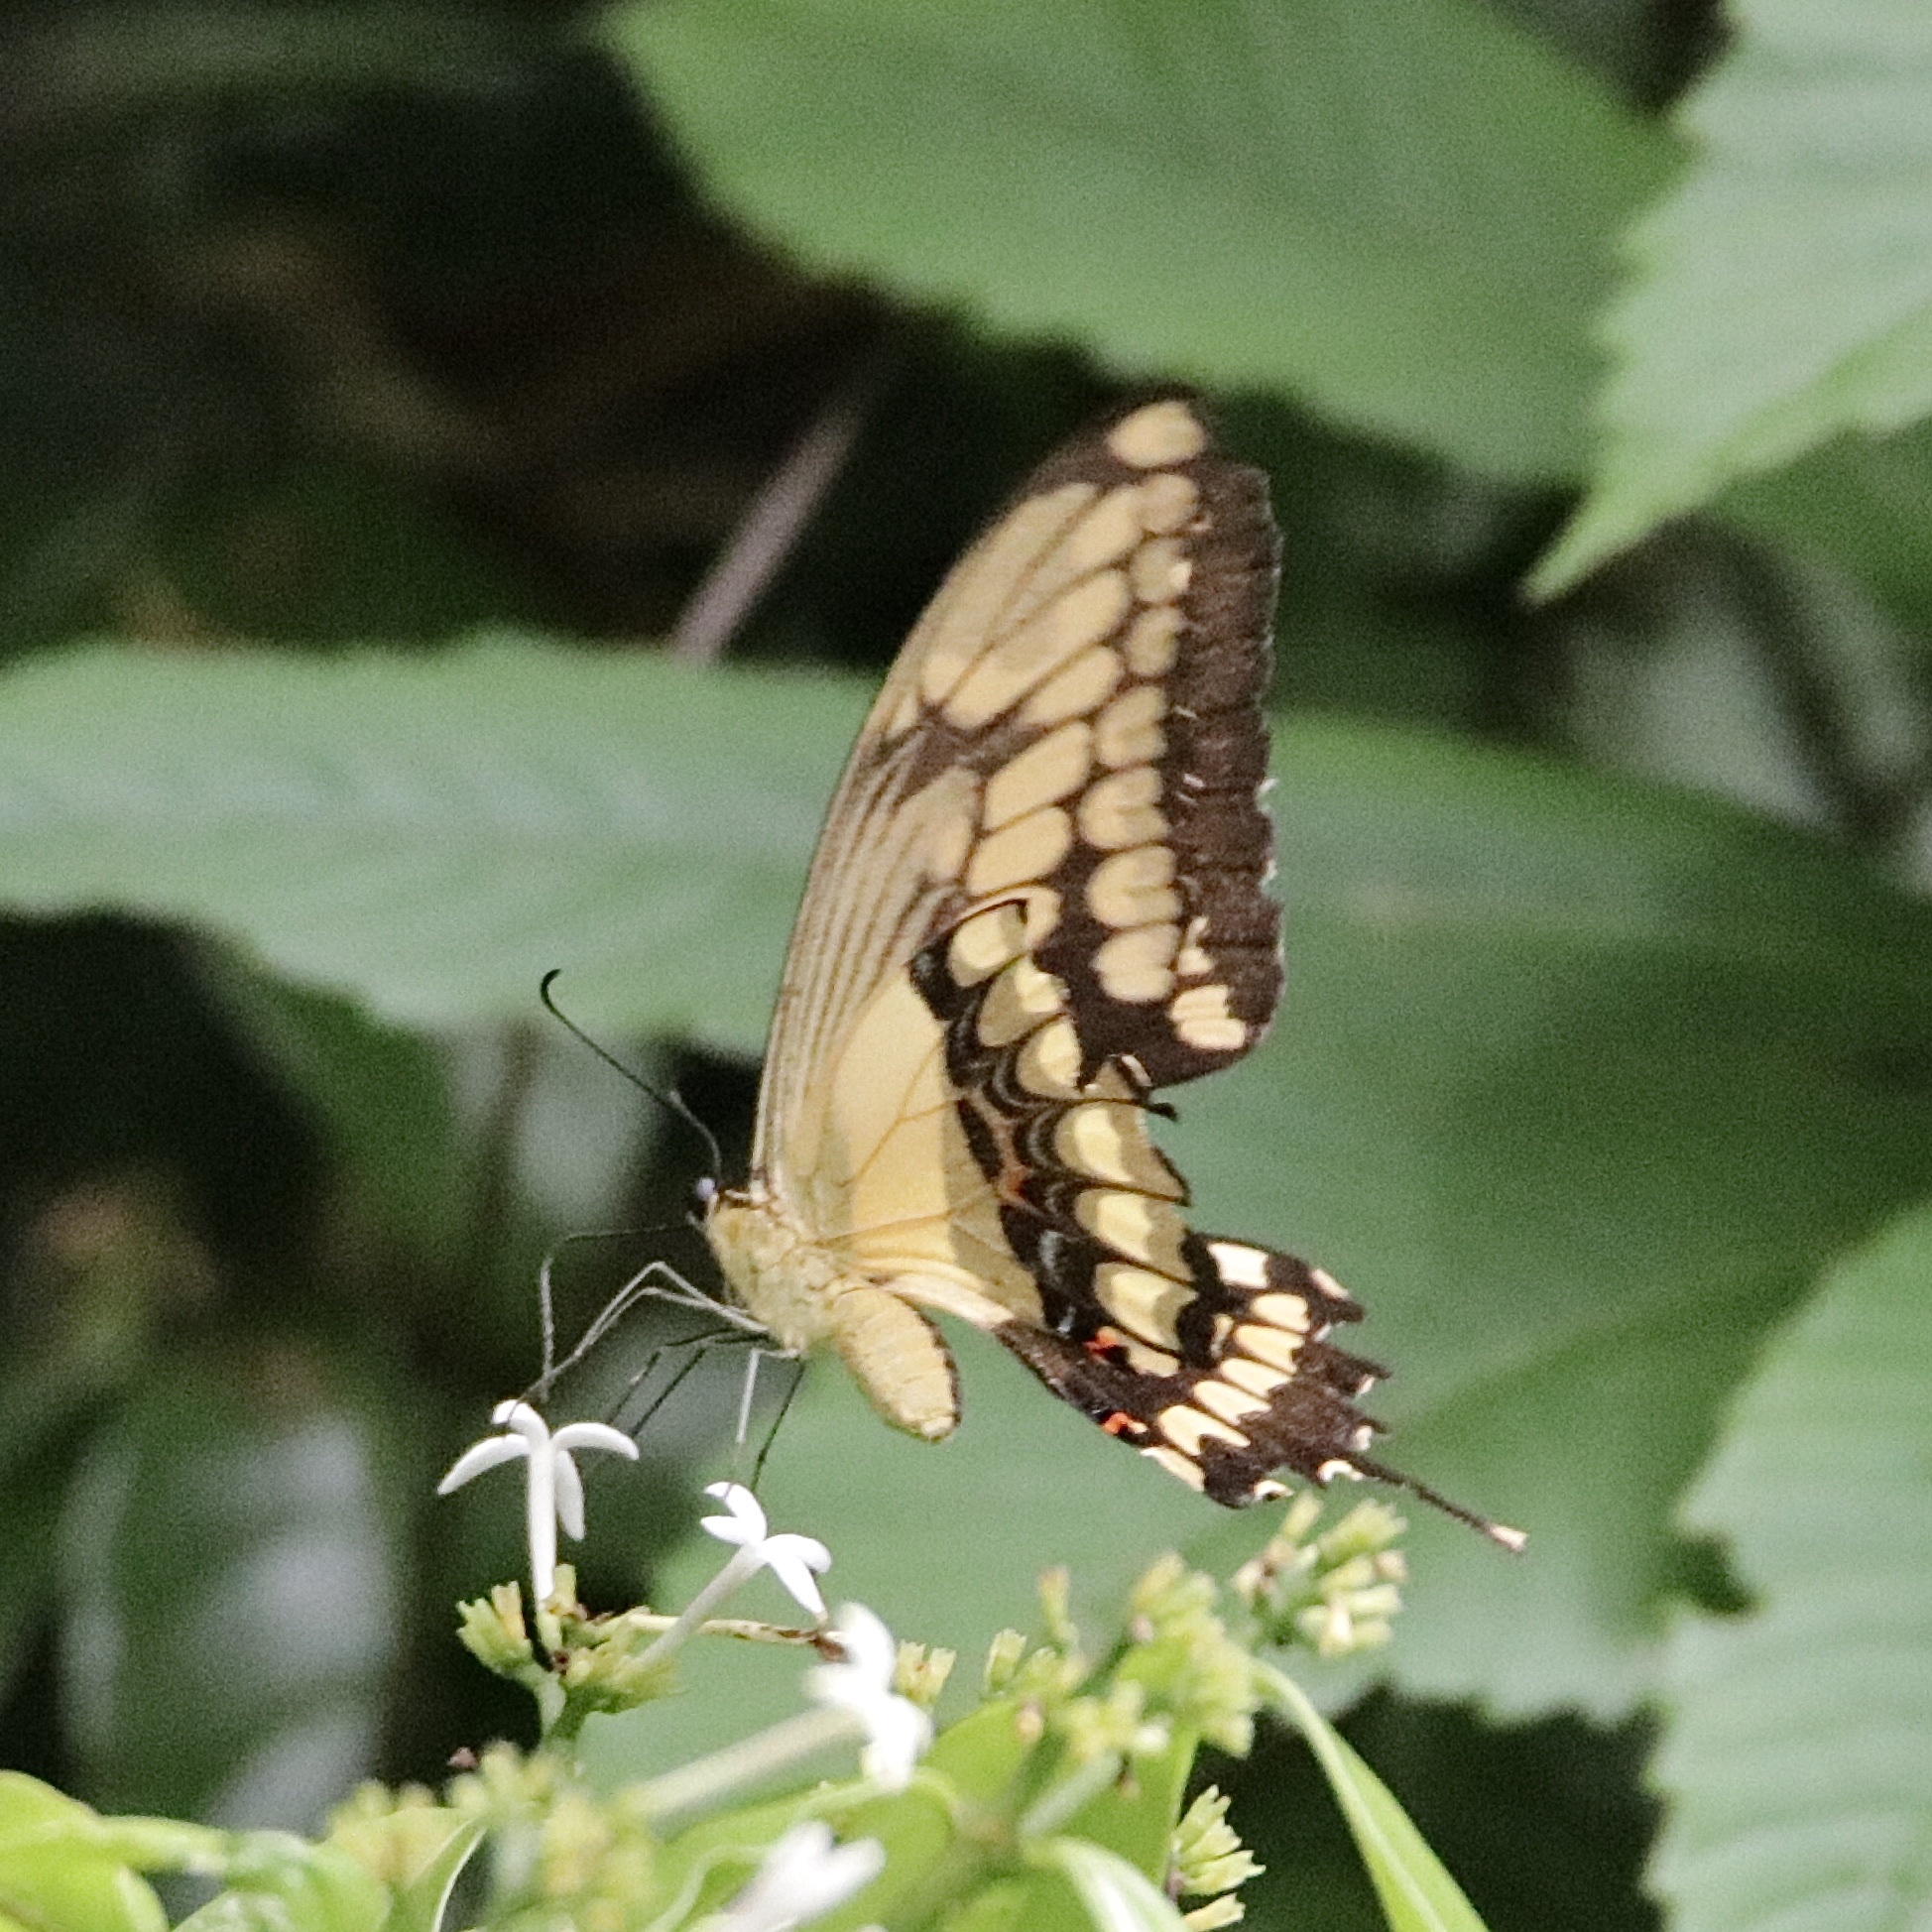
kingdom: Animalia
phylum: Arthropoda
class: Insecta
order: Lepidoptera
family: Papilionidae
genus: Papilio
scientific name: Papilio thoas
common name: King swallowtail
